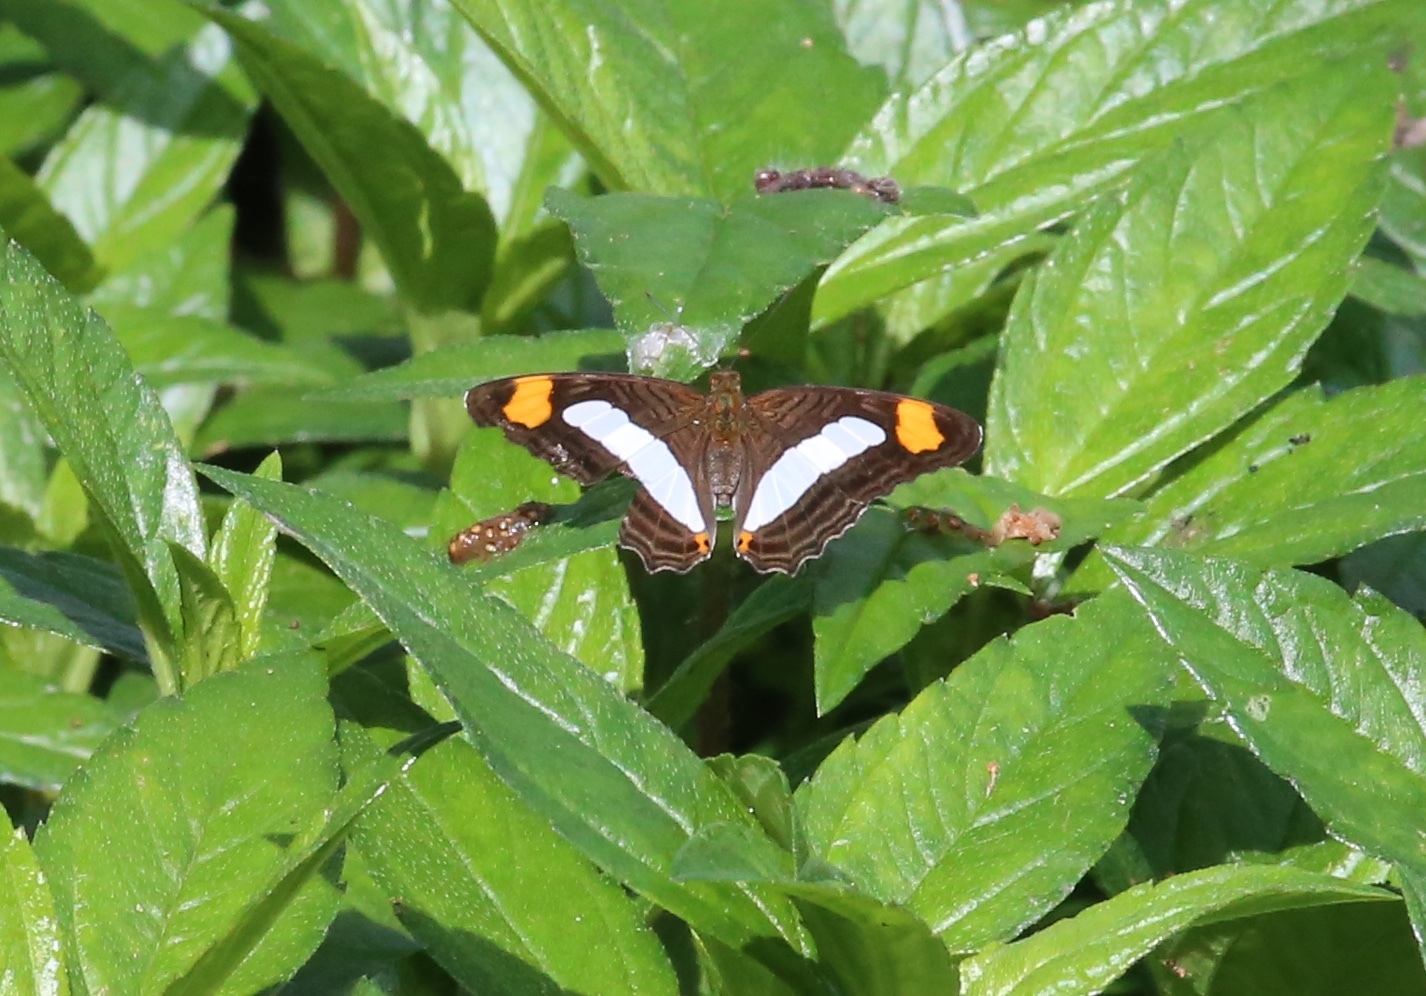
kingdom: Animalia
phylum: Arthropoda
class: Insecta
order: Lepidoptera
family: Nymphalidae
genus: Limenitis
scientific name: Limenitis iphiclus
